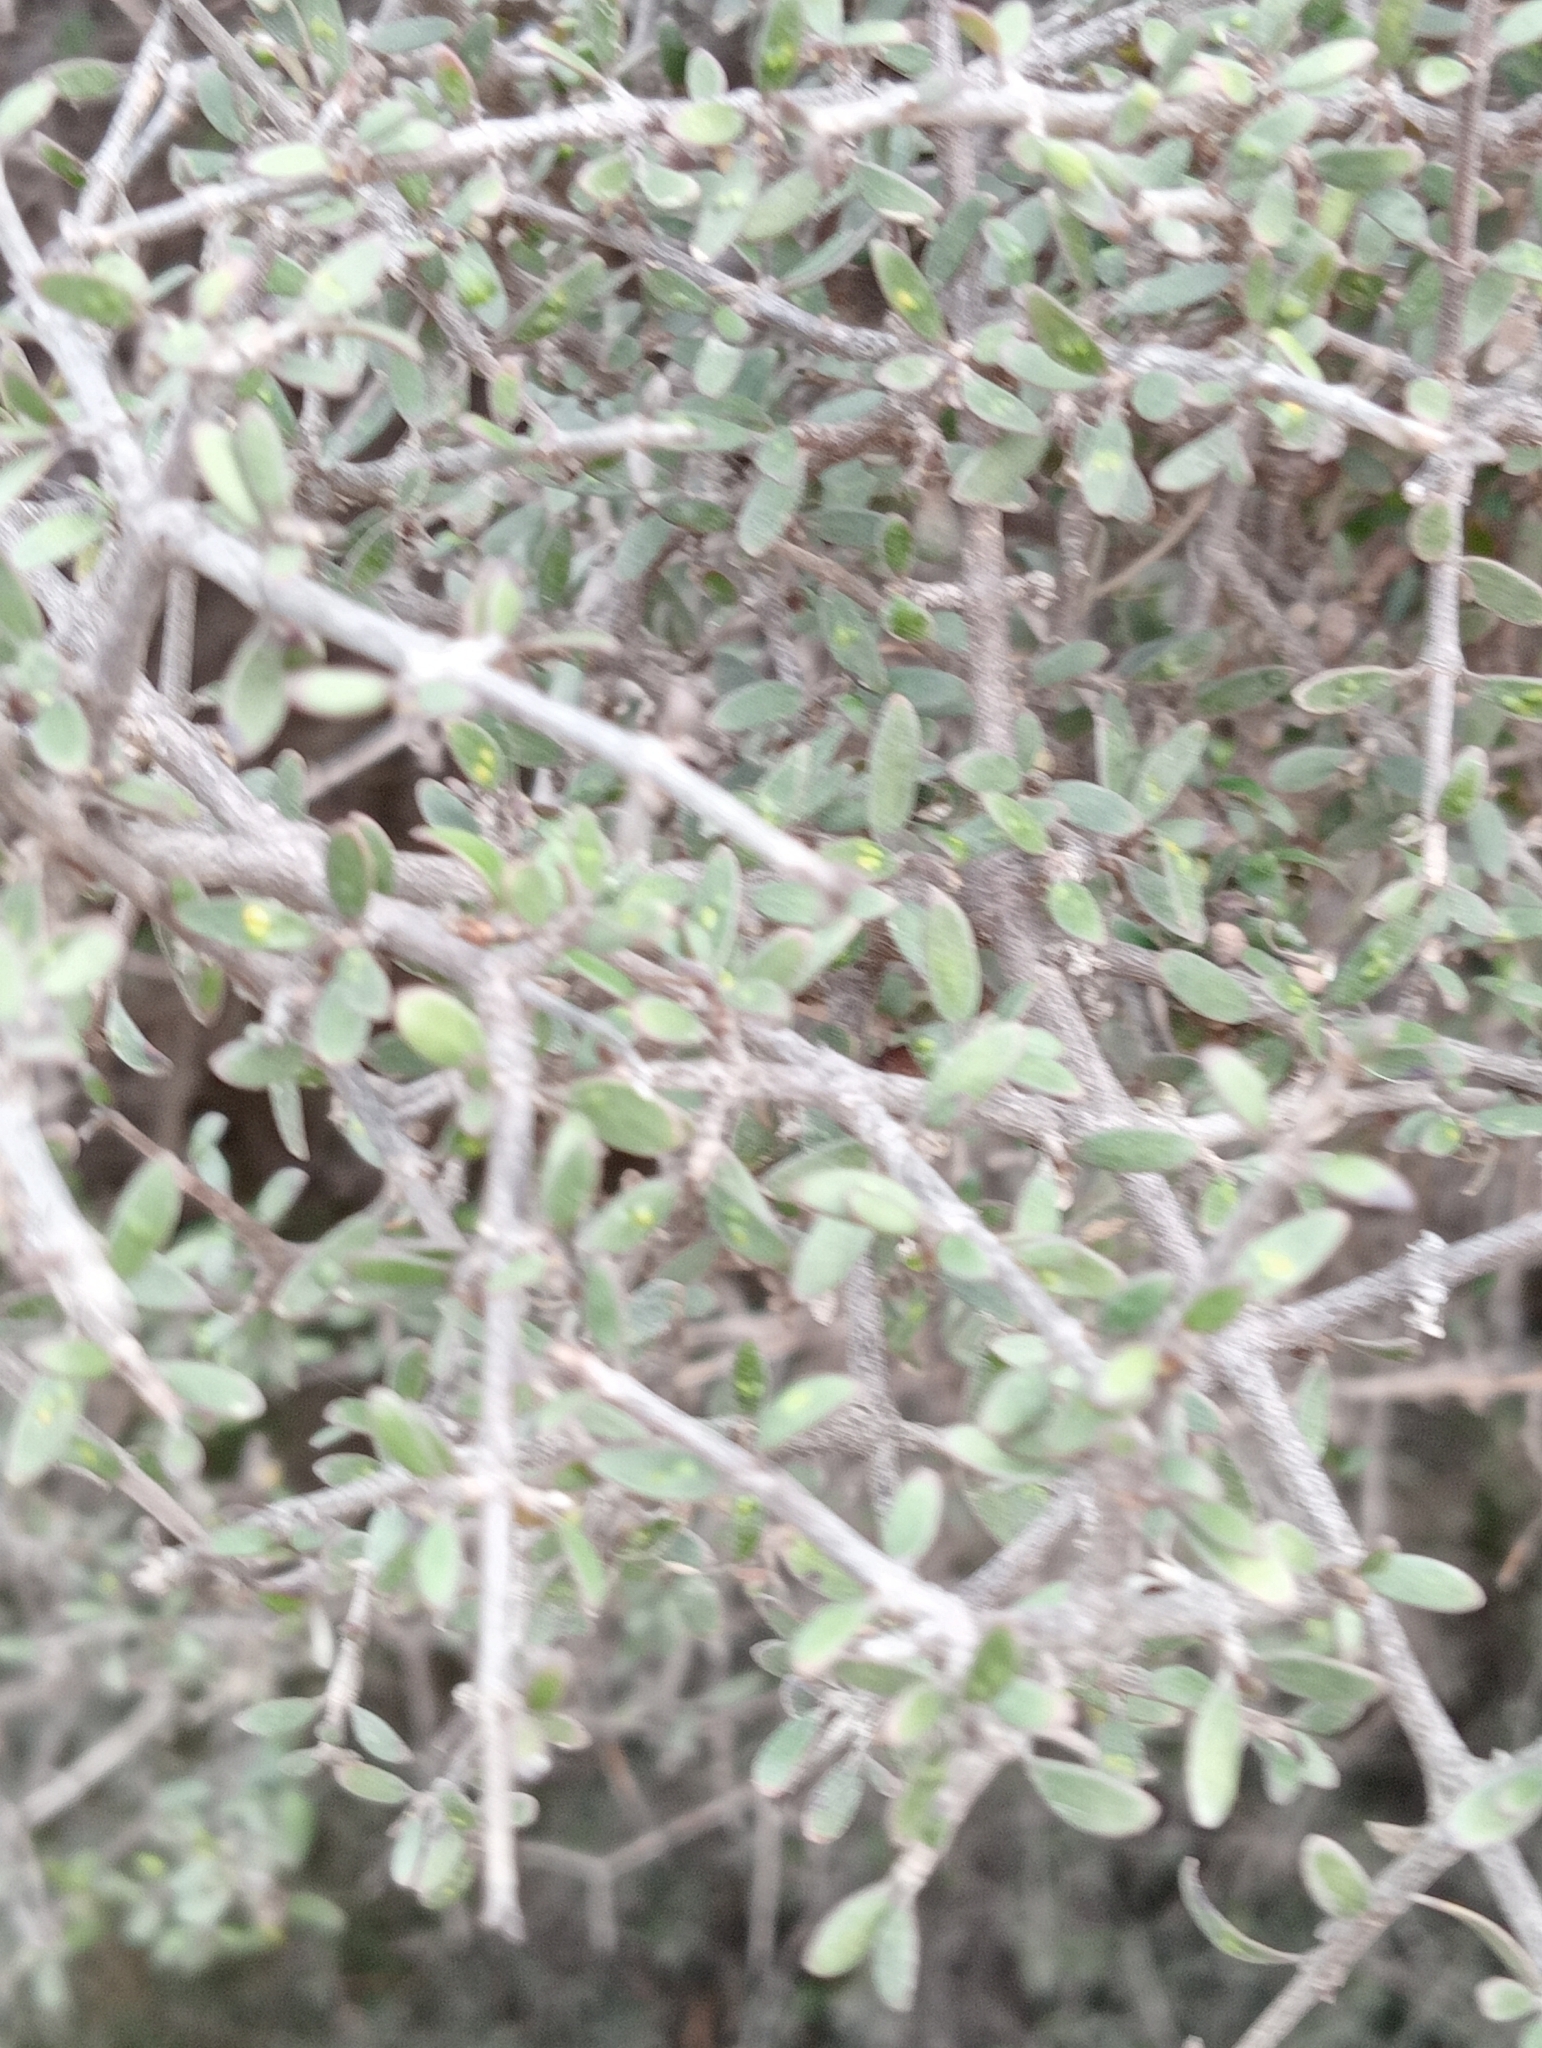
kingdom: Plantae
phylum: Tracheophyta
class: Magnoliopsida
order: Gentianales
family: Rubiaceae
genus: Coprosma
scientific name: Coprosma propinqua
